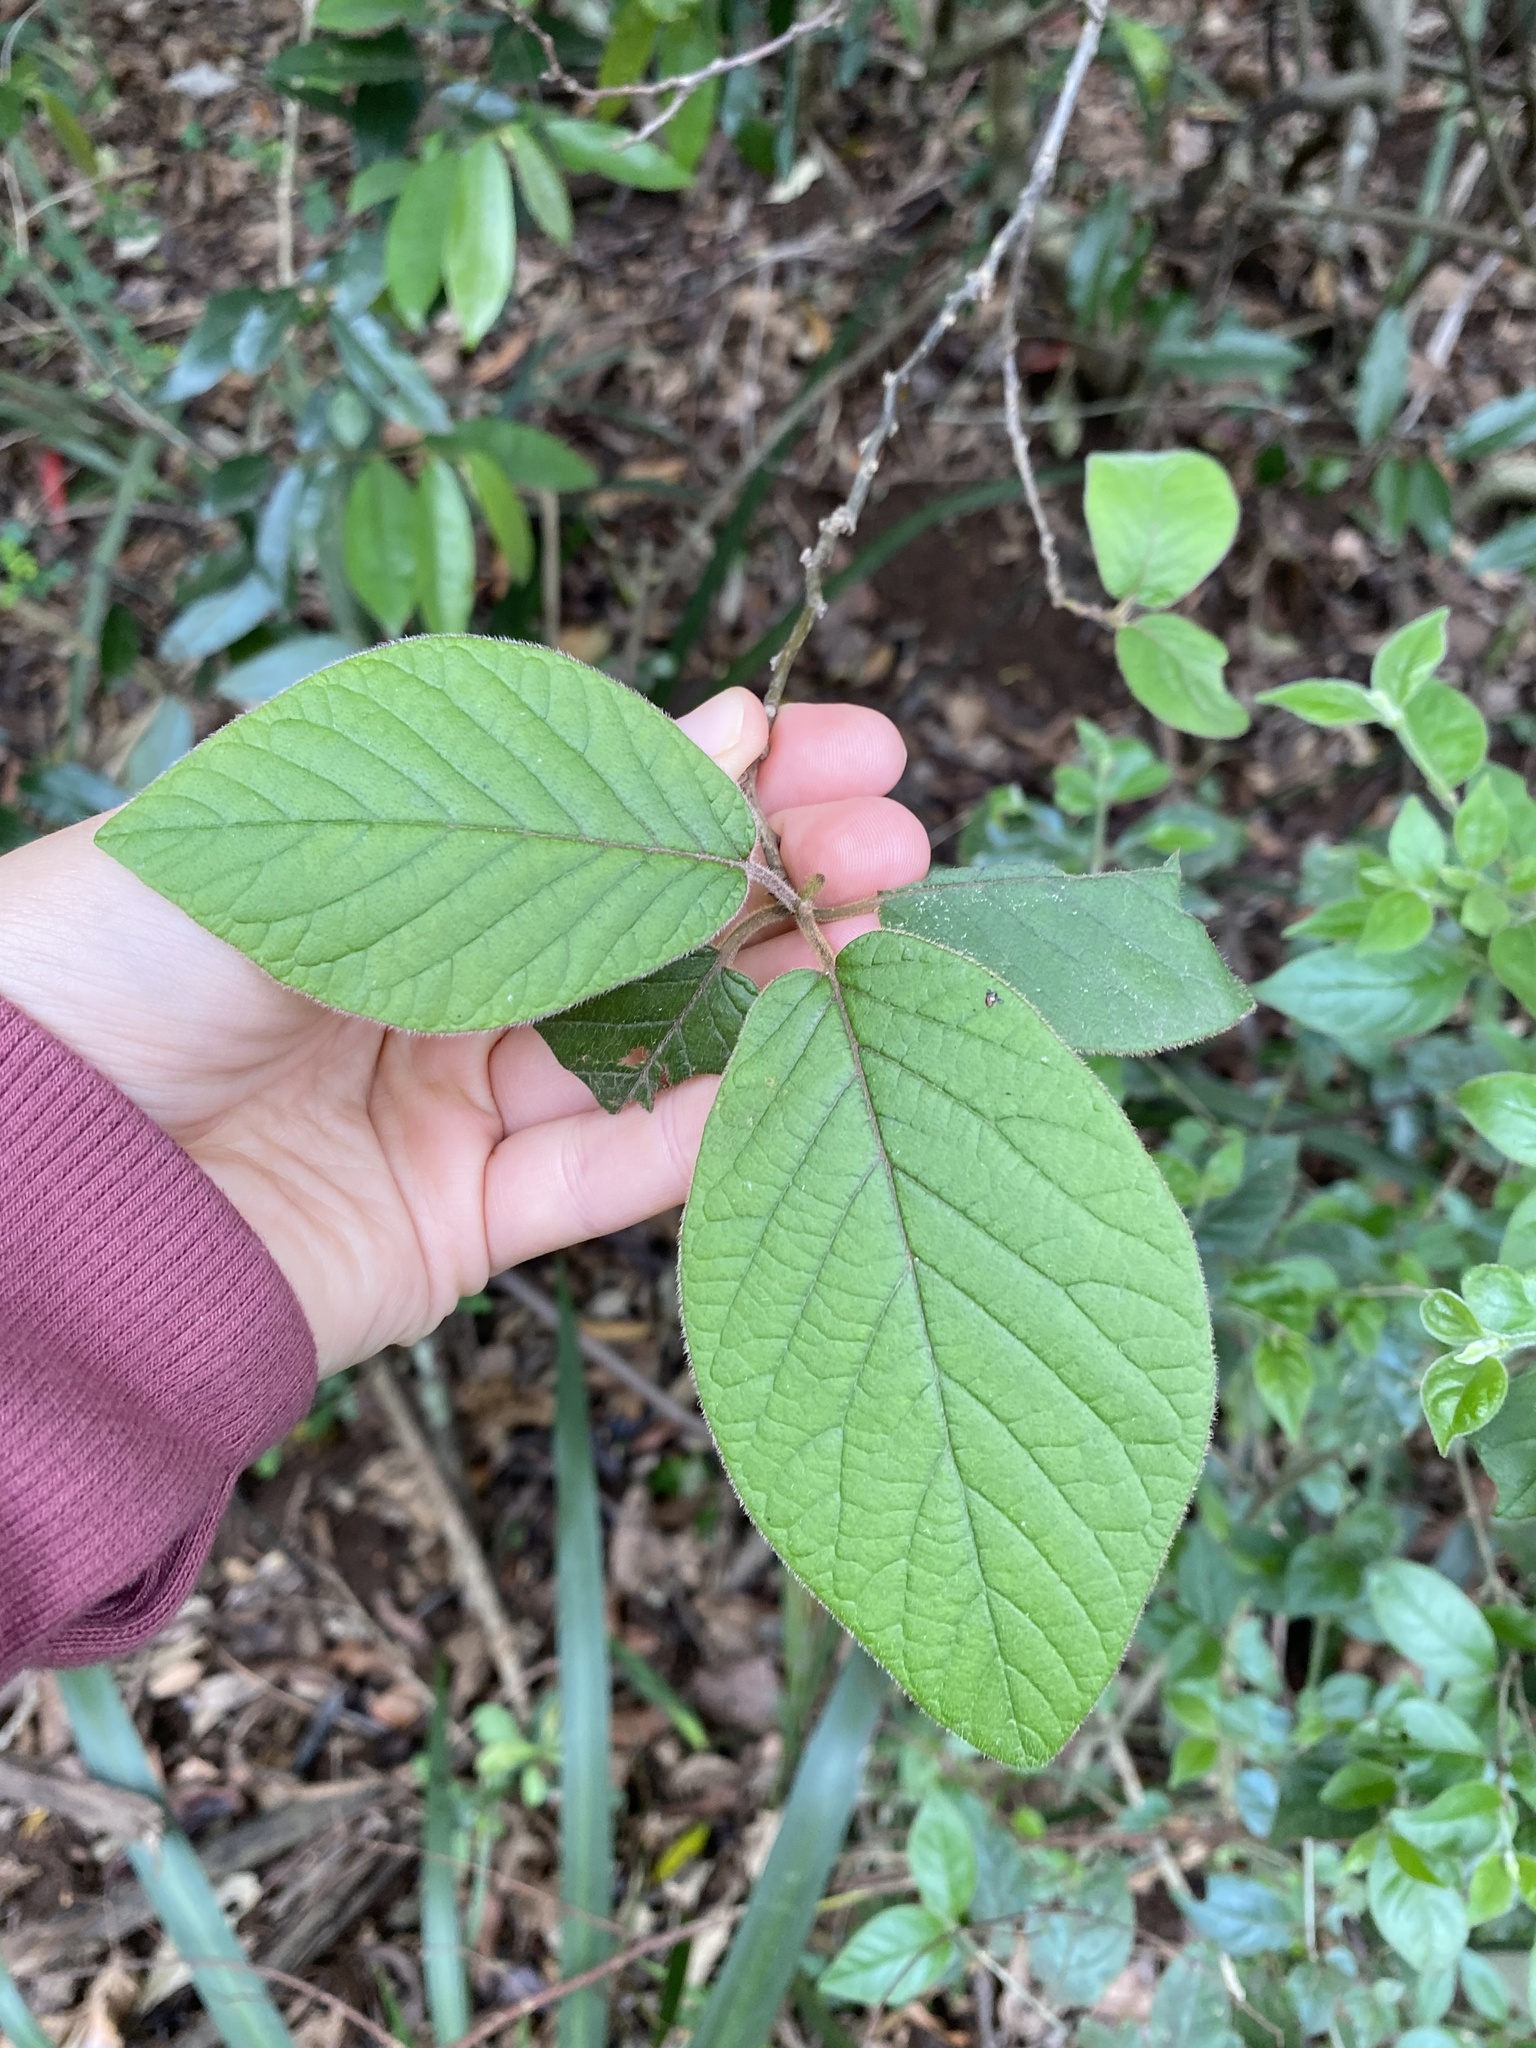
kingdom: Plantae
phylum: Tracheophyta
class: Magnoliopsida
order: Ericales
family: Ebenaceae
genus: Diospyros
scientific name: Diospyros villosa
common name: Hairy star-apple
